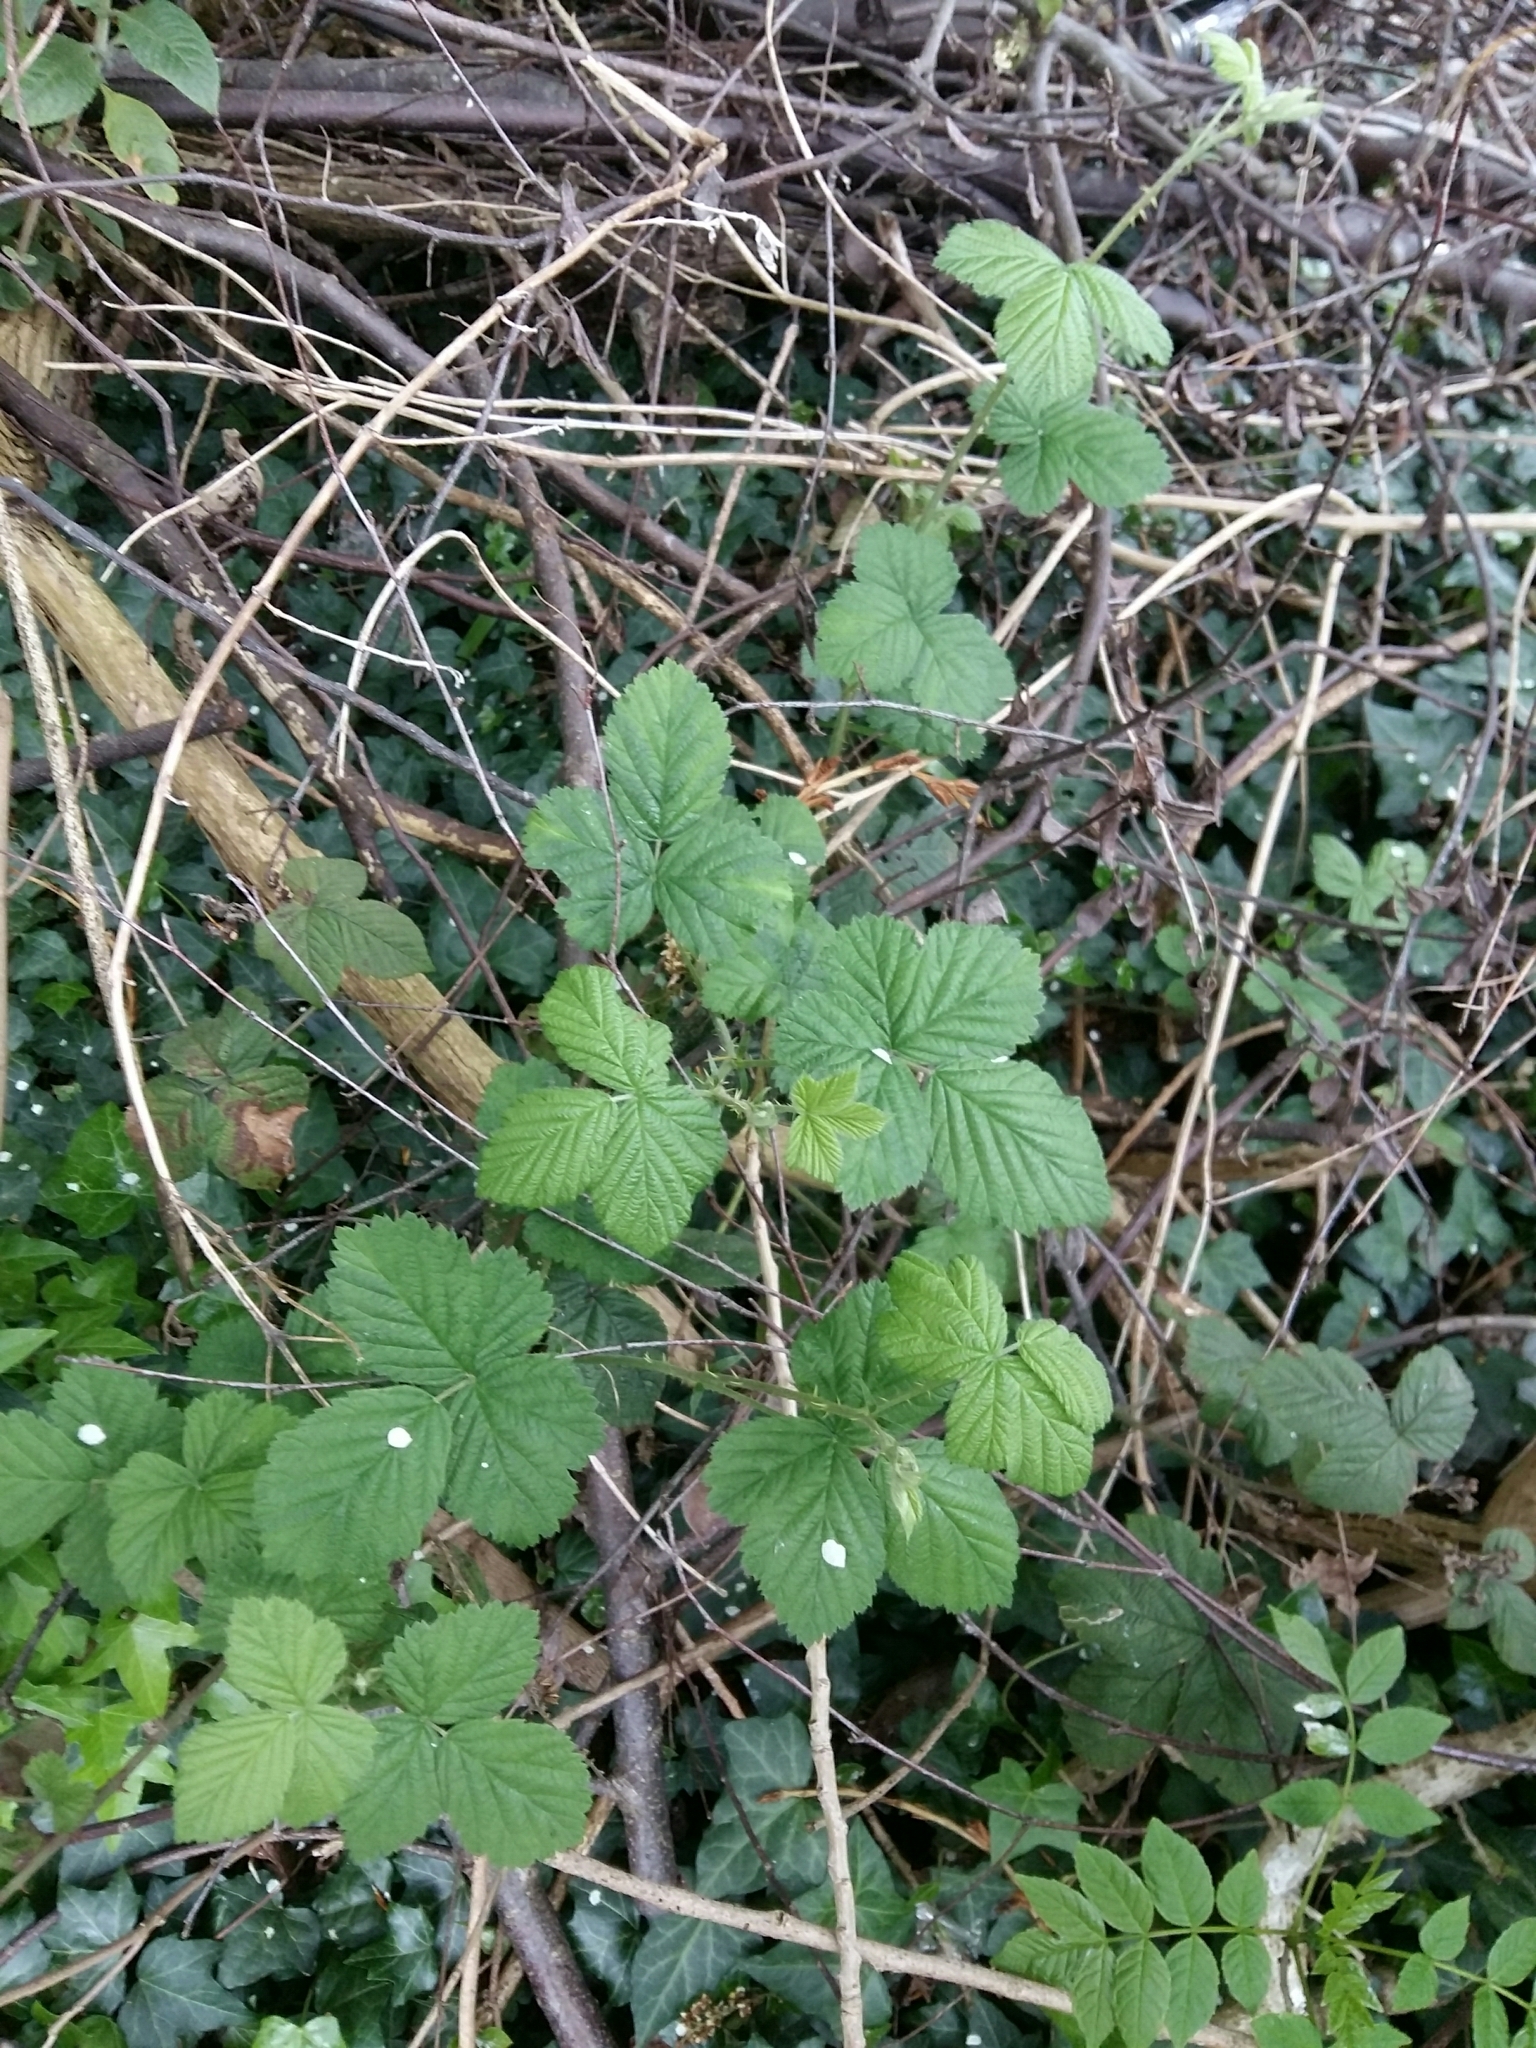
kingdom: Plantae
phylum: Tracheophyta
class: Magnoliopsida
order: Rosales
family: Rosaceae
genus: Rubus
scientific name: Rubus
